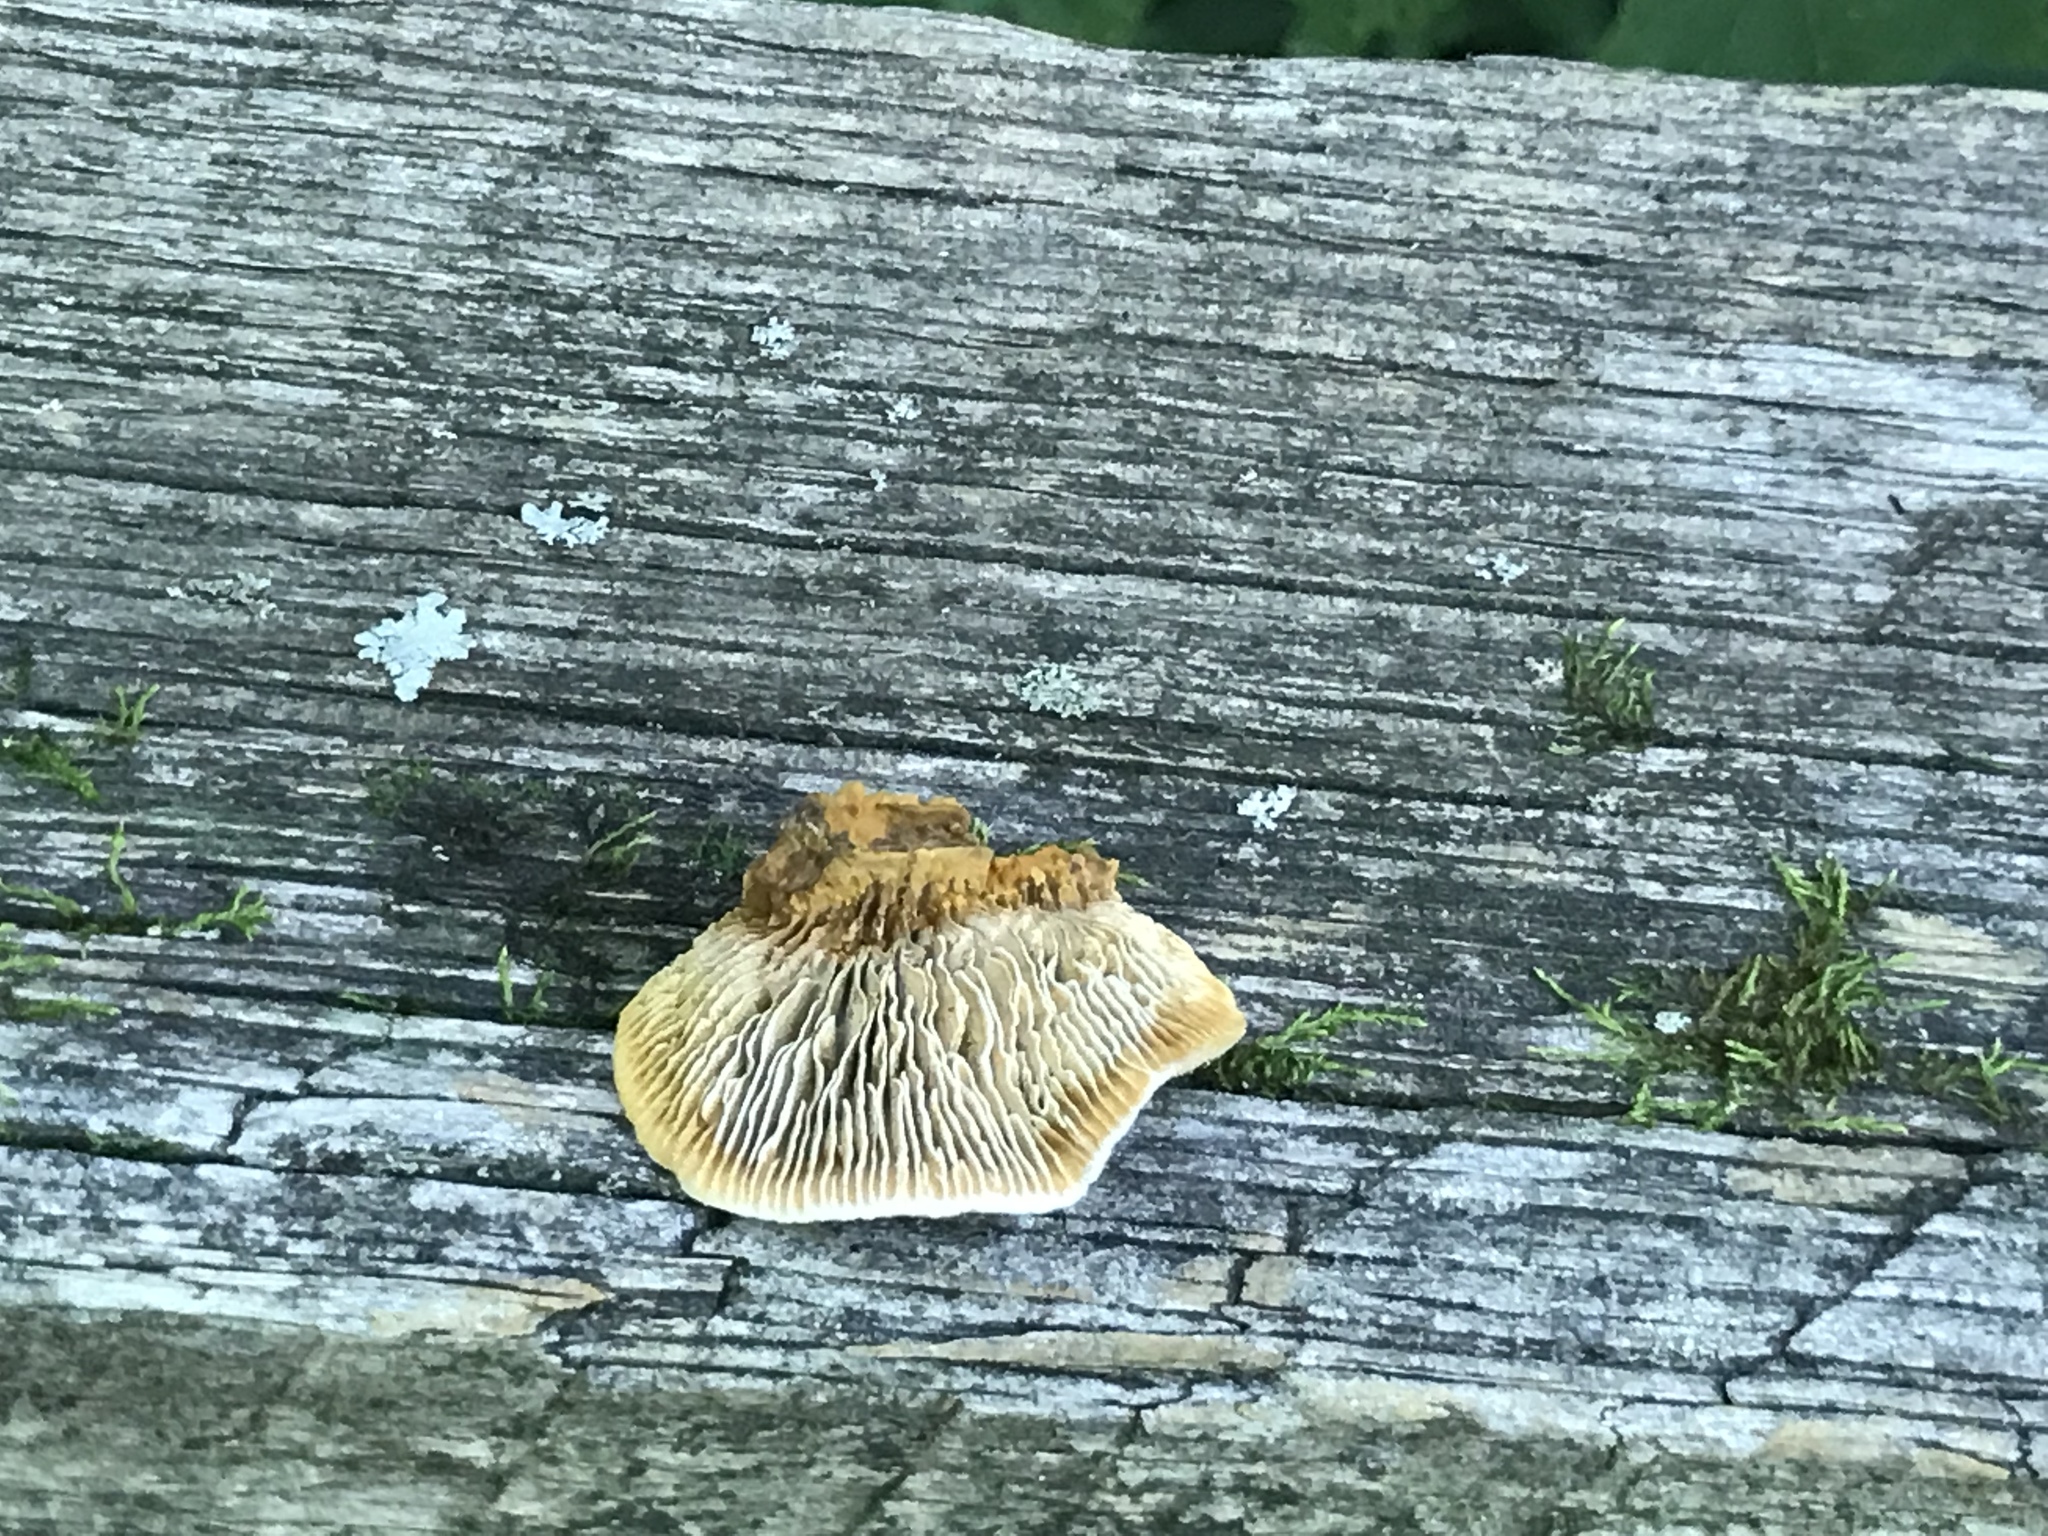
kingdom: Fungi
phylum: Basidiomycota
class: Agaricomycetes
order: Gloeophyllales
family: Gloeophyllaceae
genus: Gloeophyllum
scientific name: Gloeophyllum sepiarium
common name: Conifer mazegill
